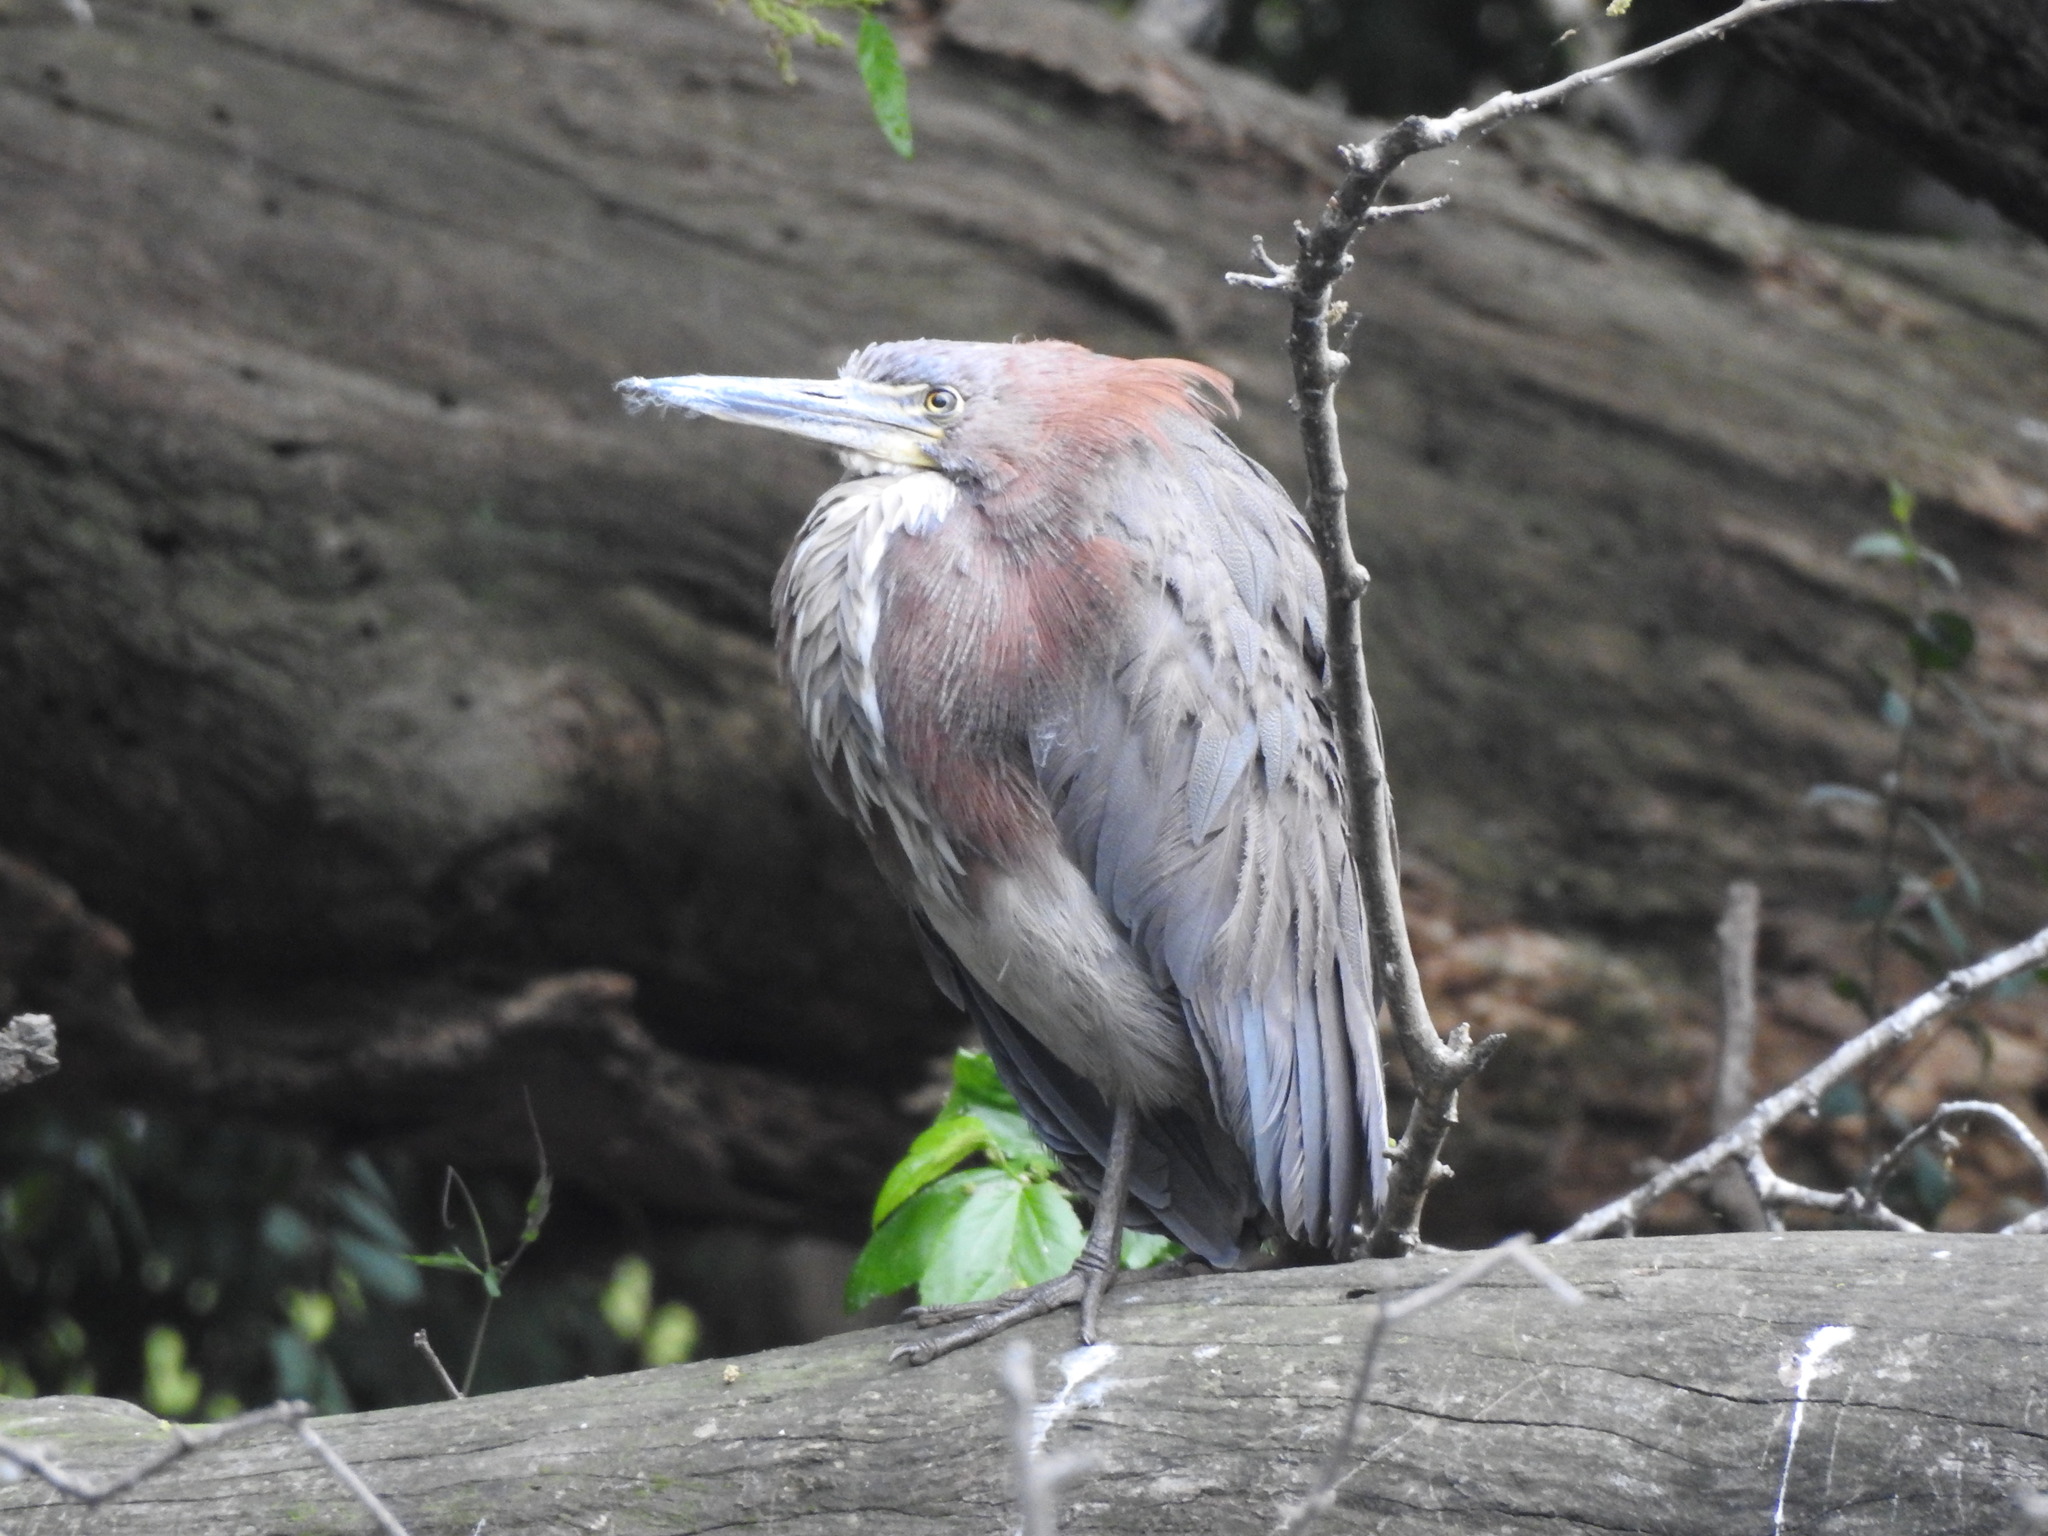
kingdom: Animalia
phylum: Chordata
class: Aves
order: Pelecaniformes
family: Ardeidae
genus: Tigrisoma
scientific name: Tigrisoma lineatum
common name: Rufescent tiger-heron
